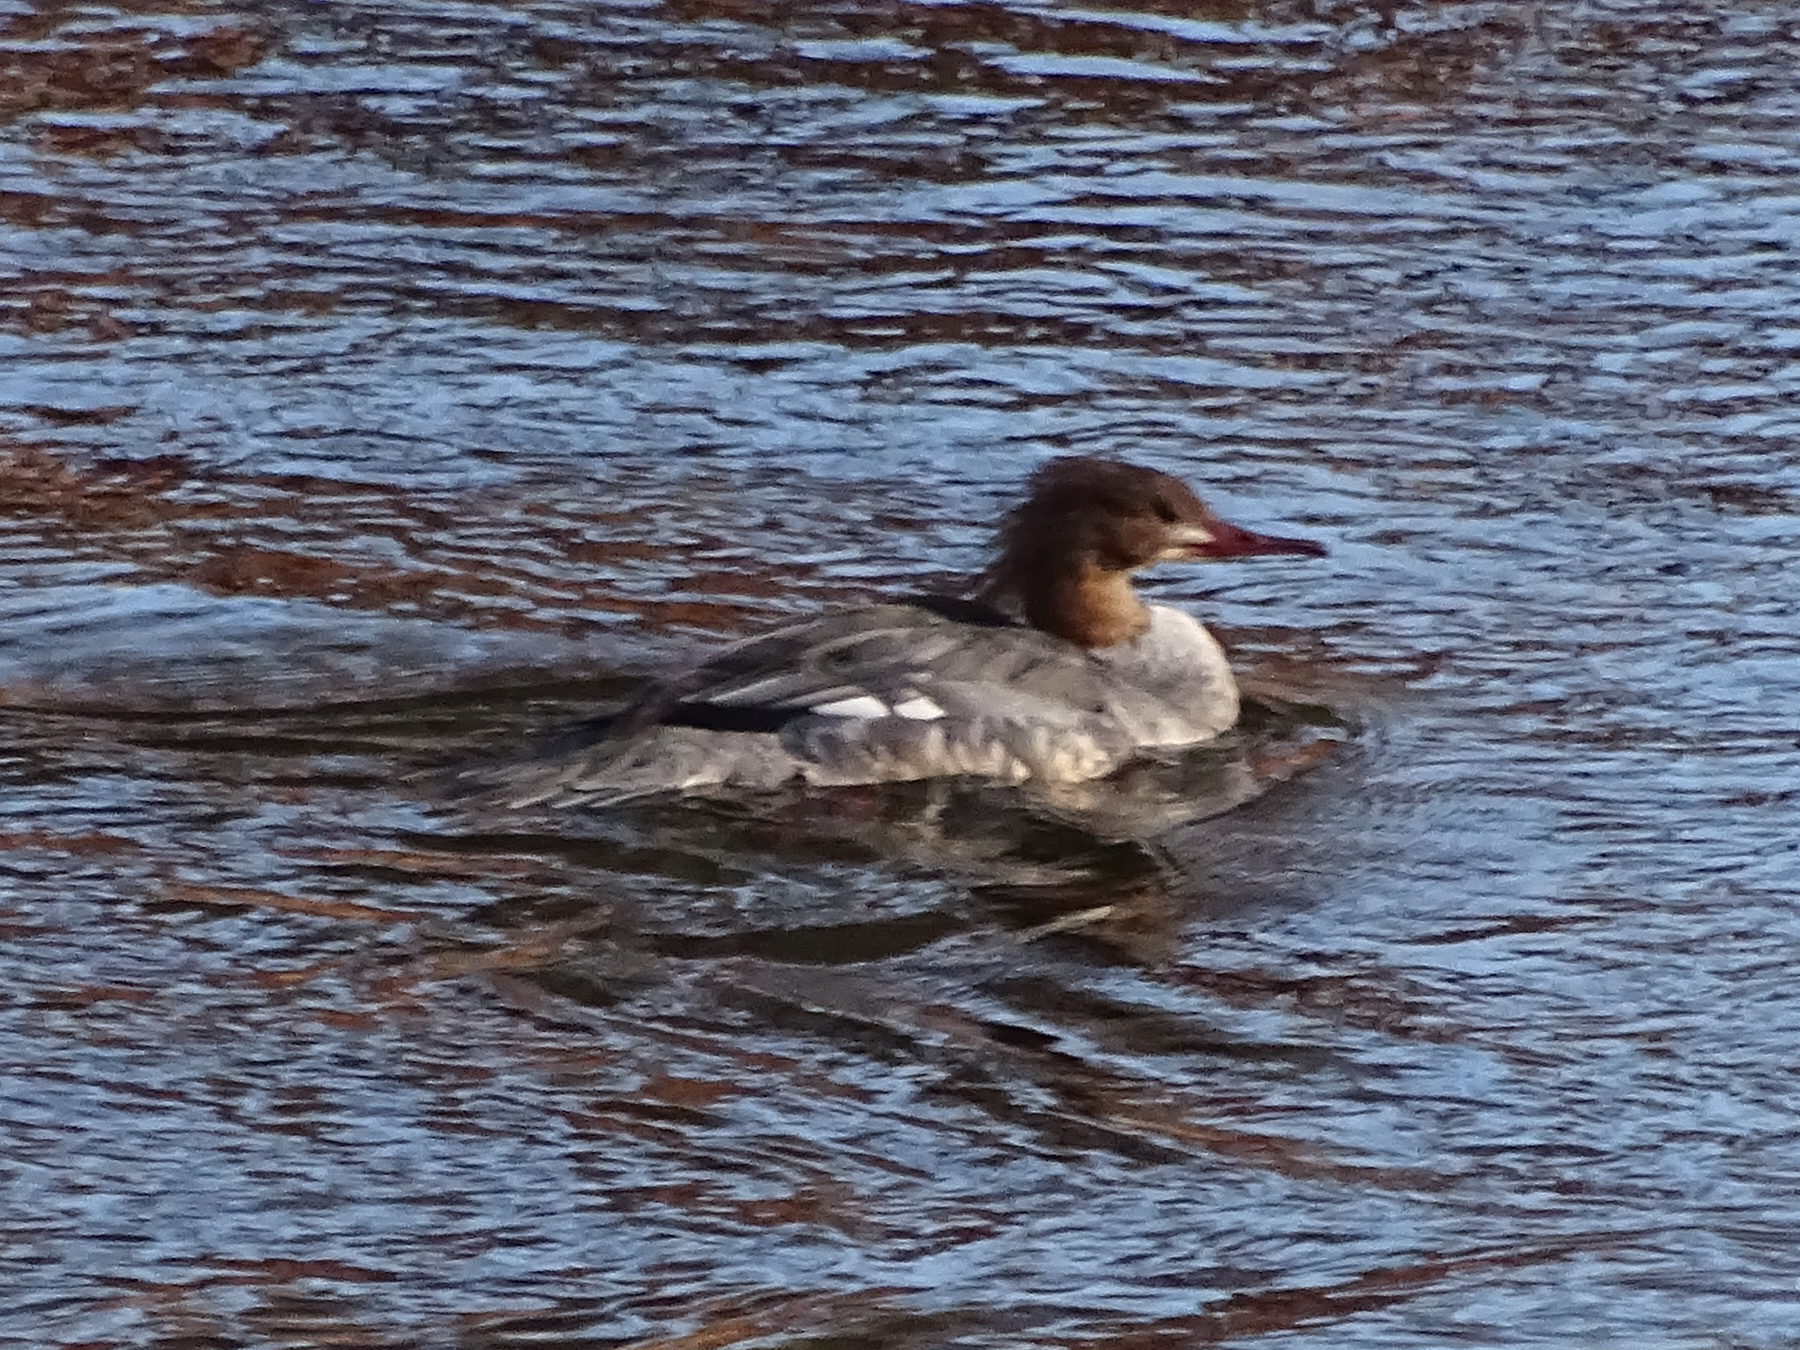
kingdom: Animalia
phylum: Chordata
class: Aves
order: Anseriformes
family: Anatidae
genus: Mergus
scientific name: Mergus merganser
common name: Common merganser
